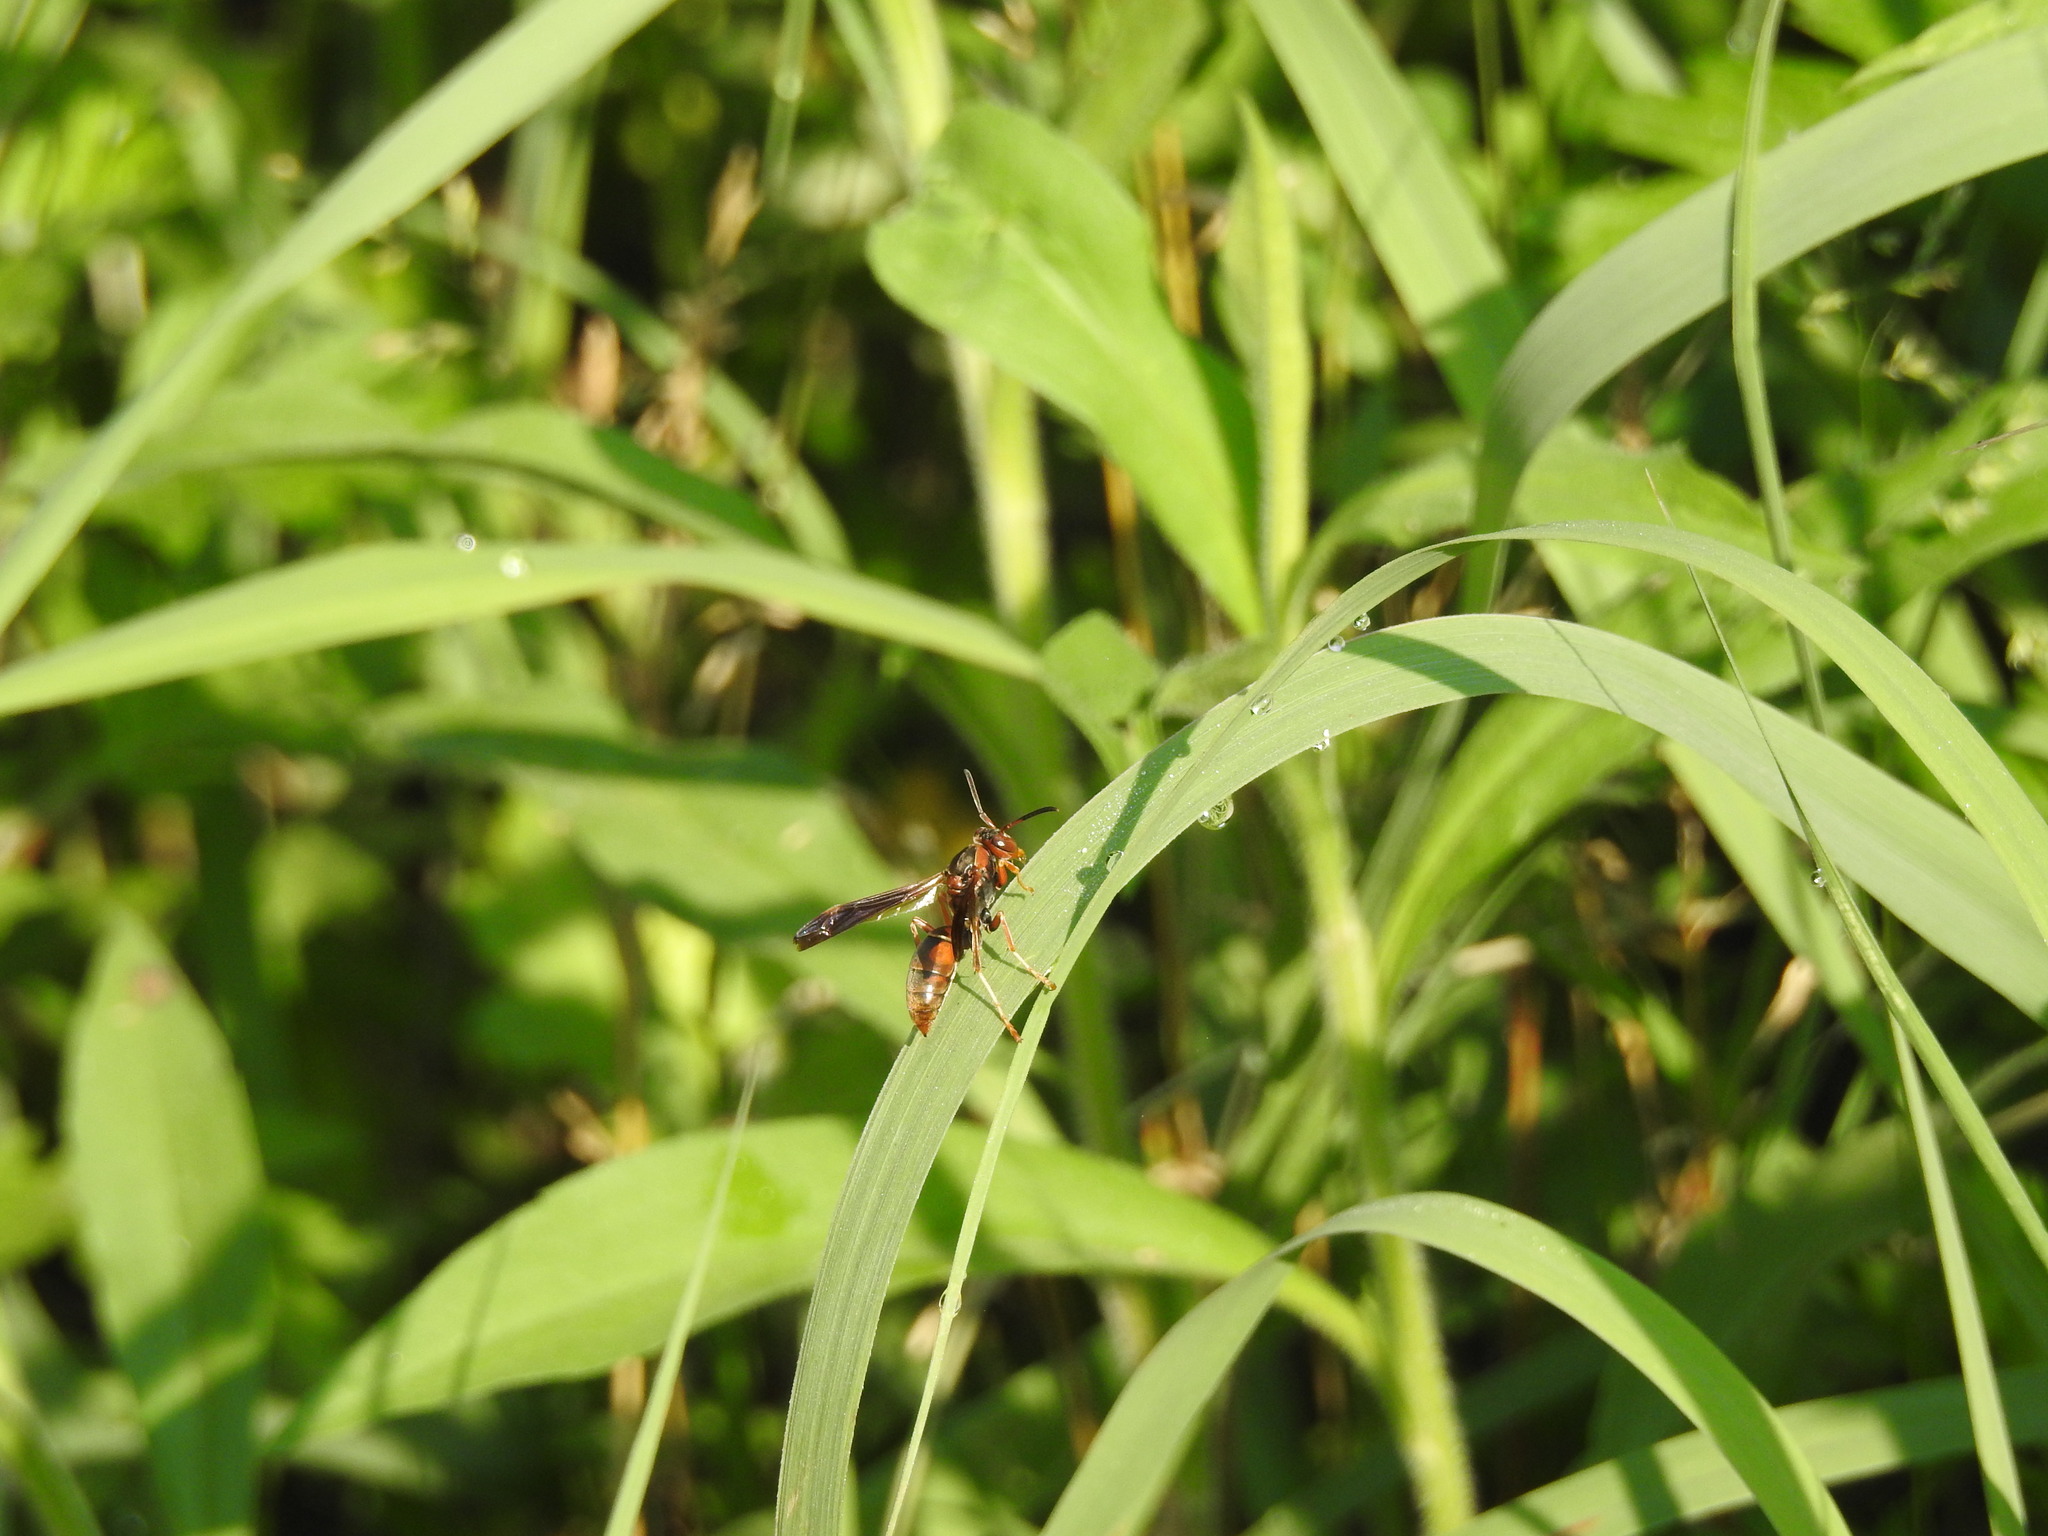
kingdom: Animalia
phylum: Arthropoda
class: Insecta
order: Hymenoptera
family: Eumenidae
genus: Polistes
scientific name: Polistes fuscatus
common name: Dark paper wasp
